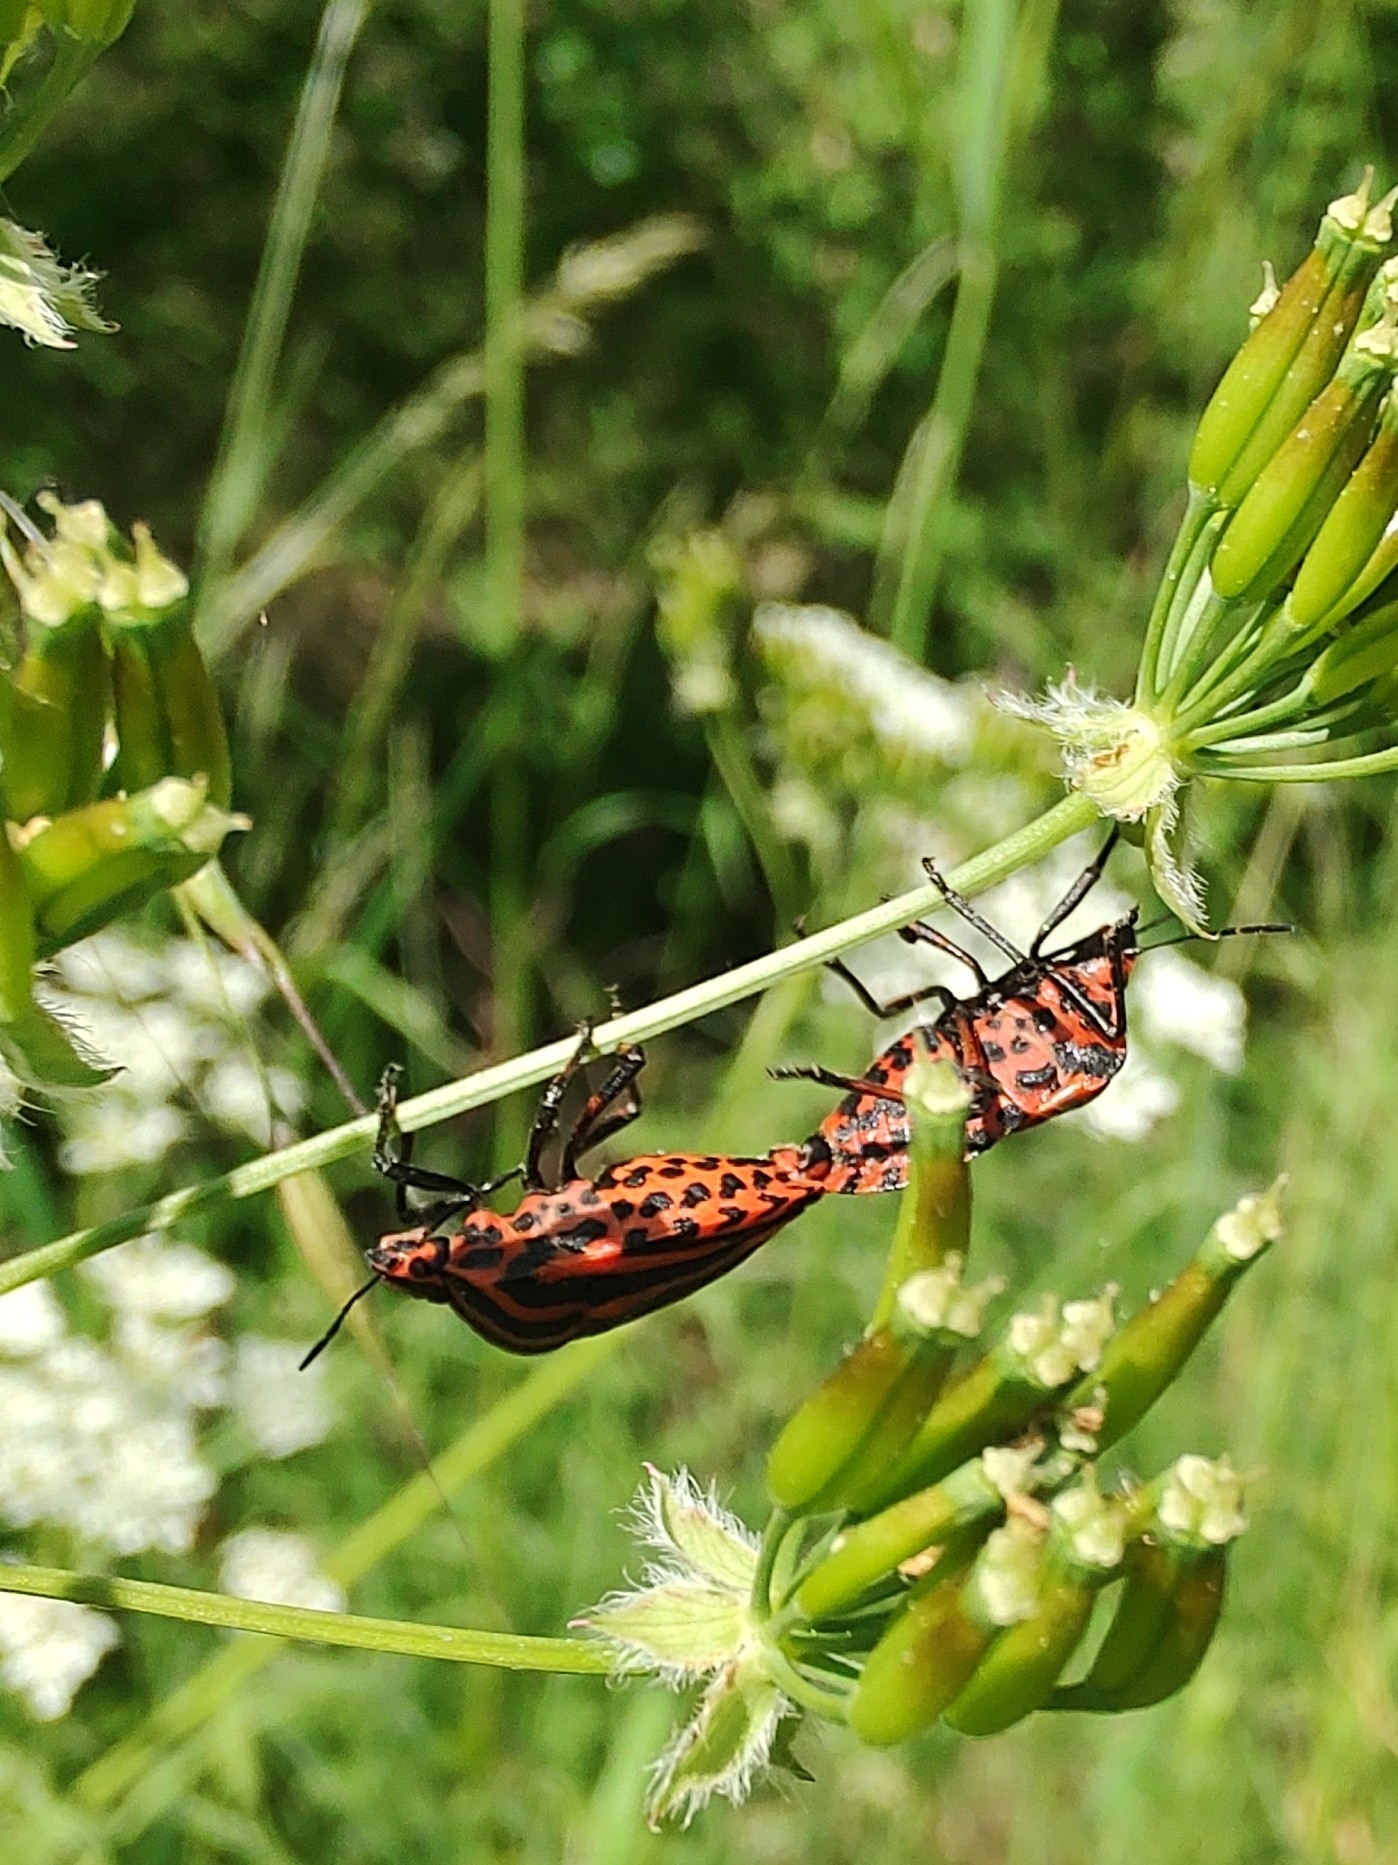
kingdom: Animalia
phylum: Arthropoda
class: Insecta
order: Hemiptera
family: Pentatomidae
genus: Graphosoma
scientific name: Graphosoma italicum
